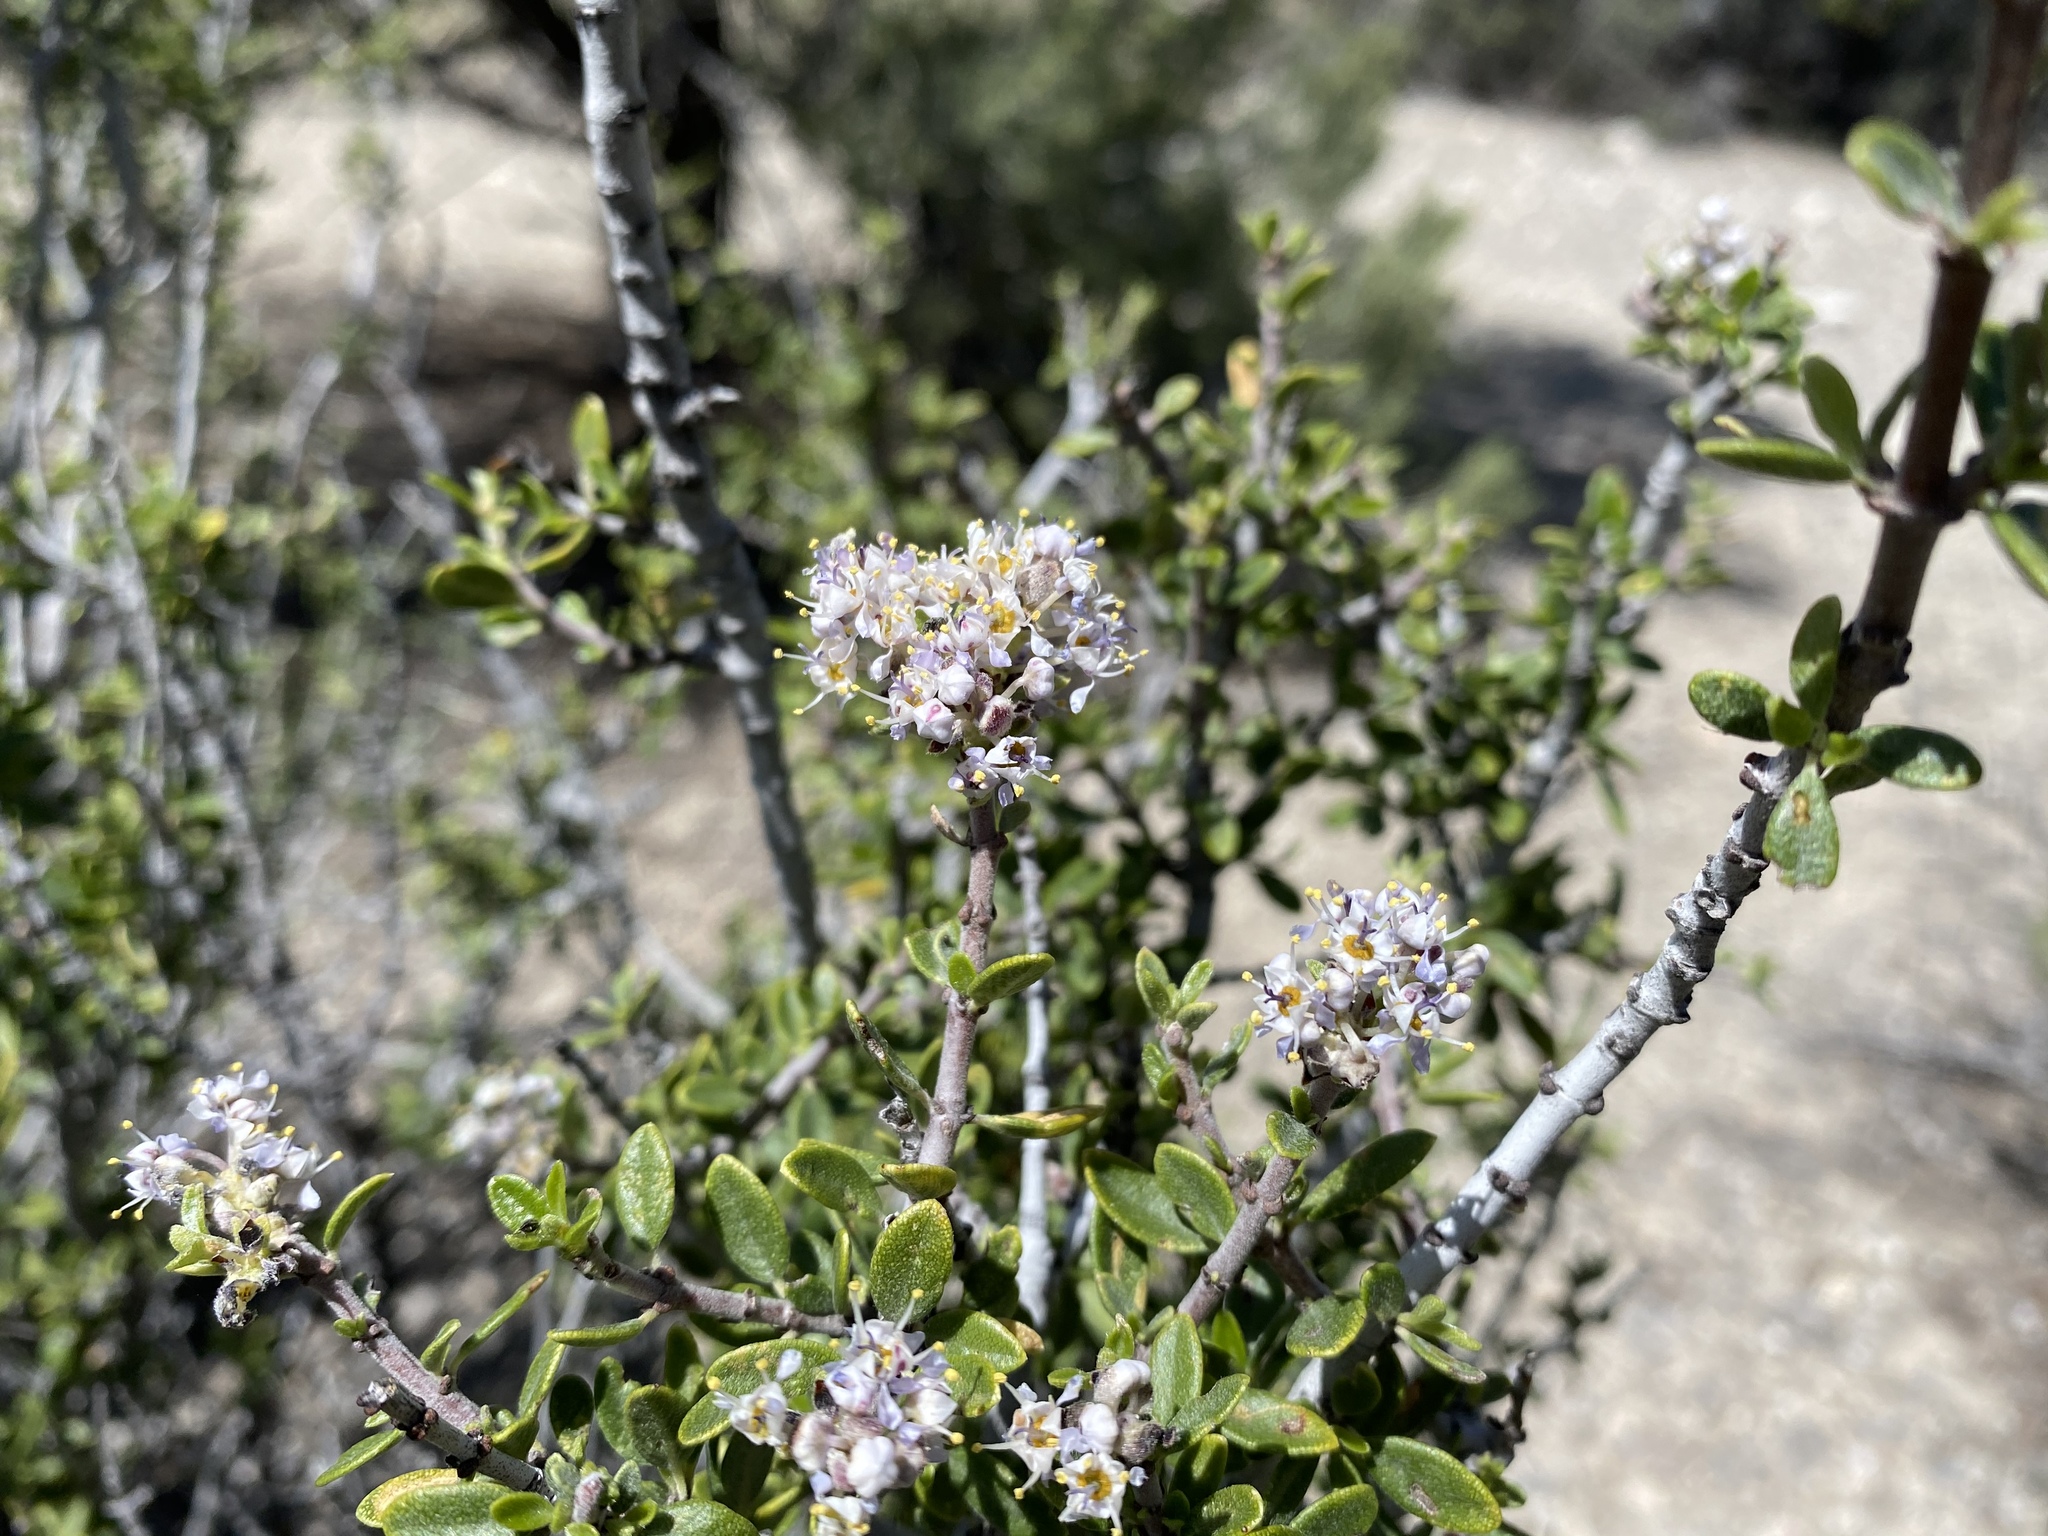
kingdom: Plantae
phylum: Tracheophyta
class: Magnoliopsida
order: Rosales
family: Rhamnaceae
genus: Ceanothus
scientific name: Ceanothus pauciflorus
